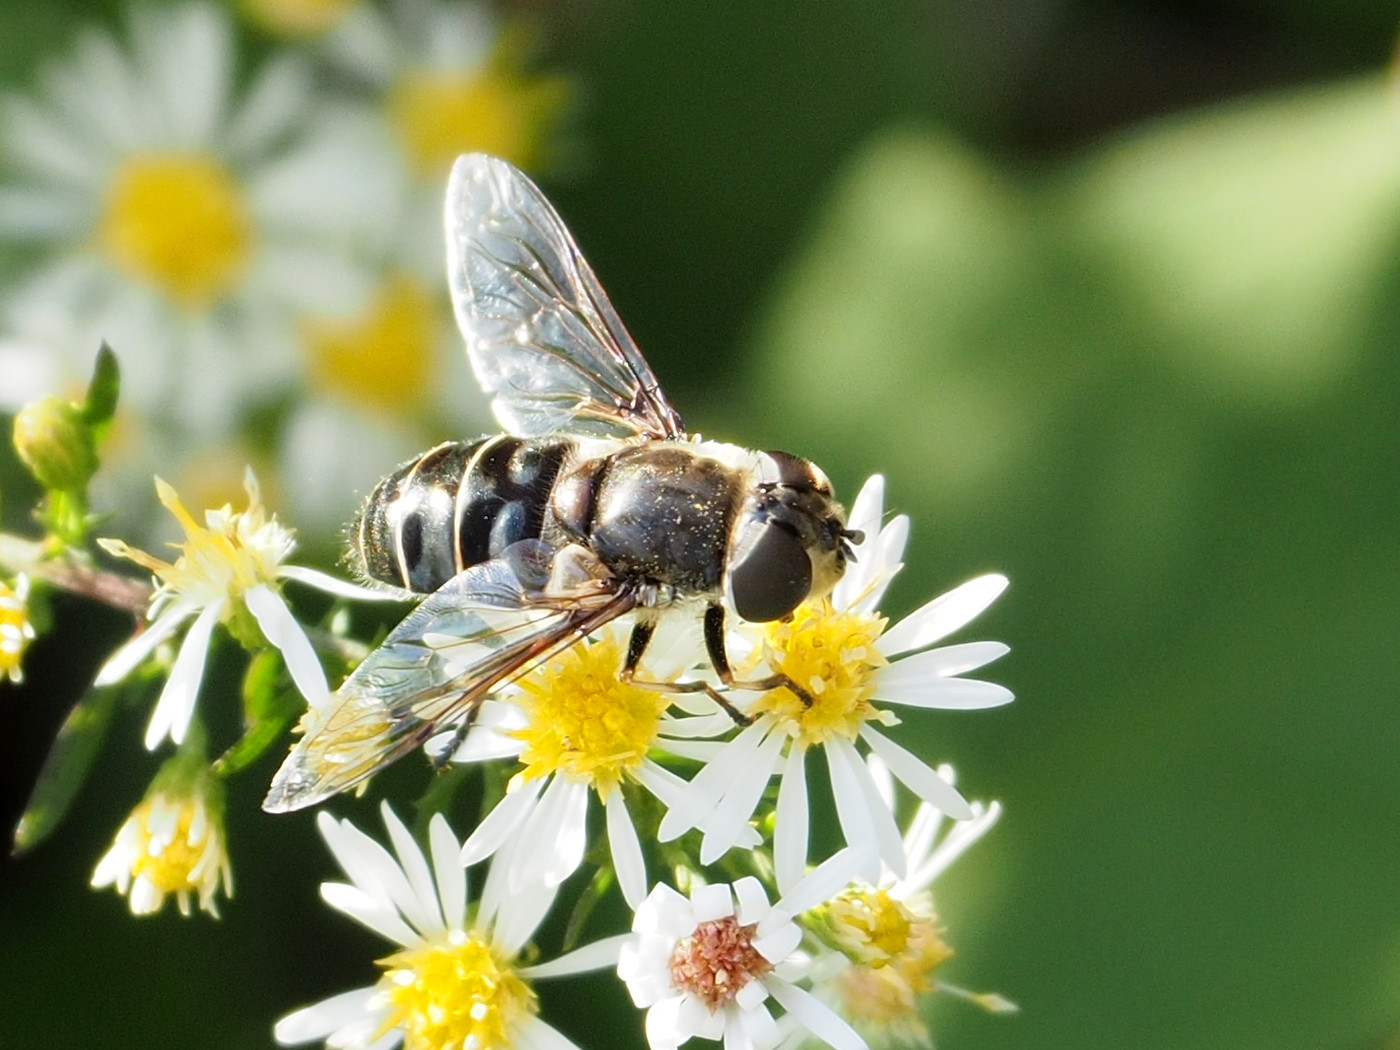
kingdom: Animalia
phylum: Arthropoda
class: Insecta
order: Diptera
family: Syrphidae
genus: Eristalis
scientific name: Eristalis dimidiata
